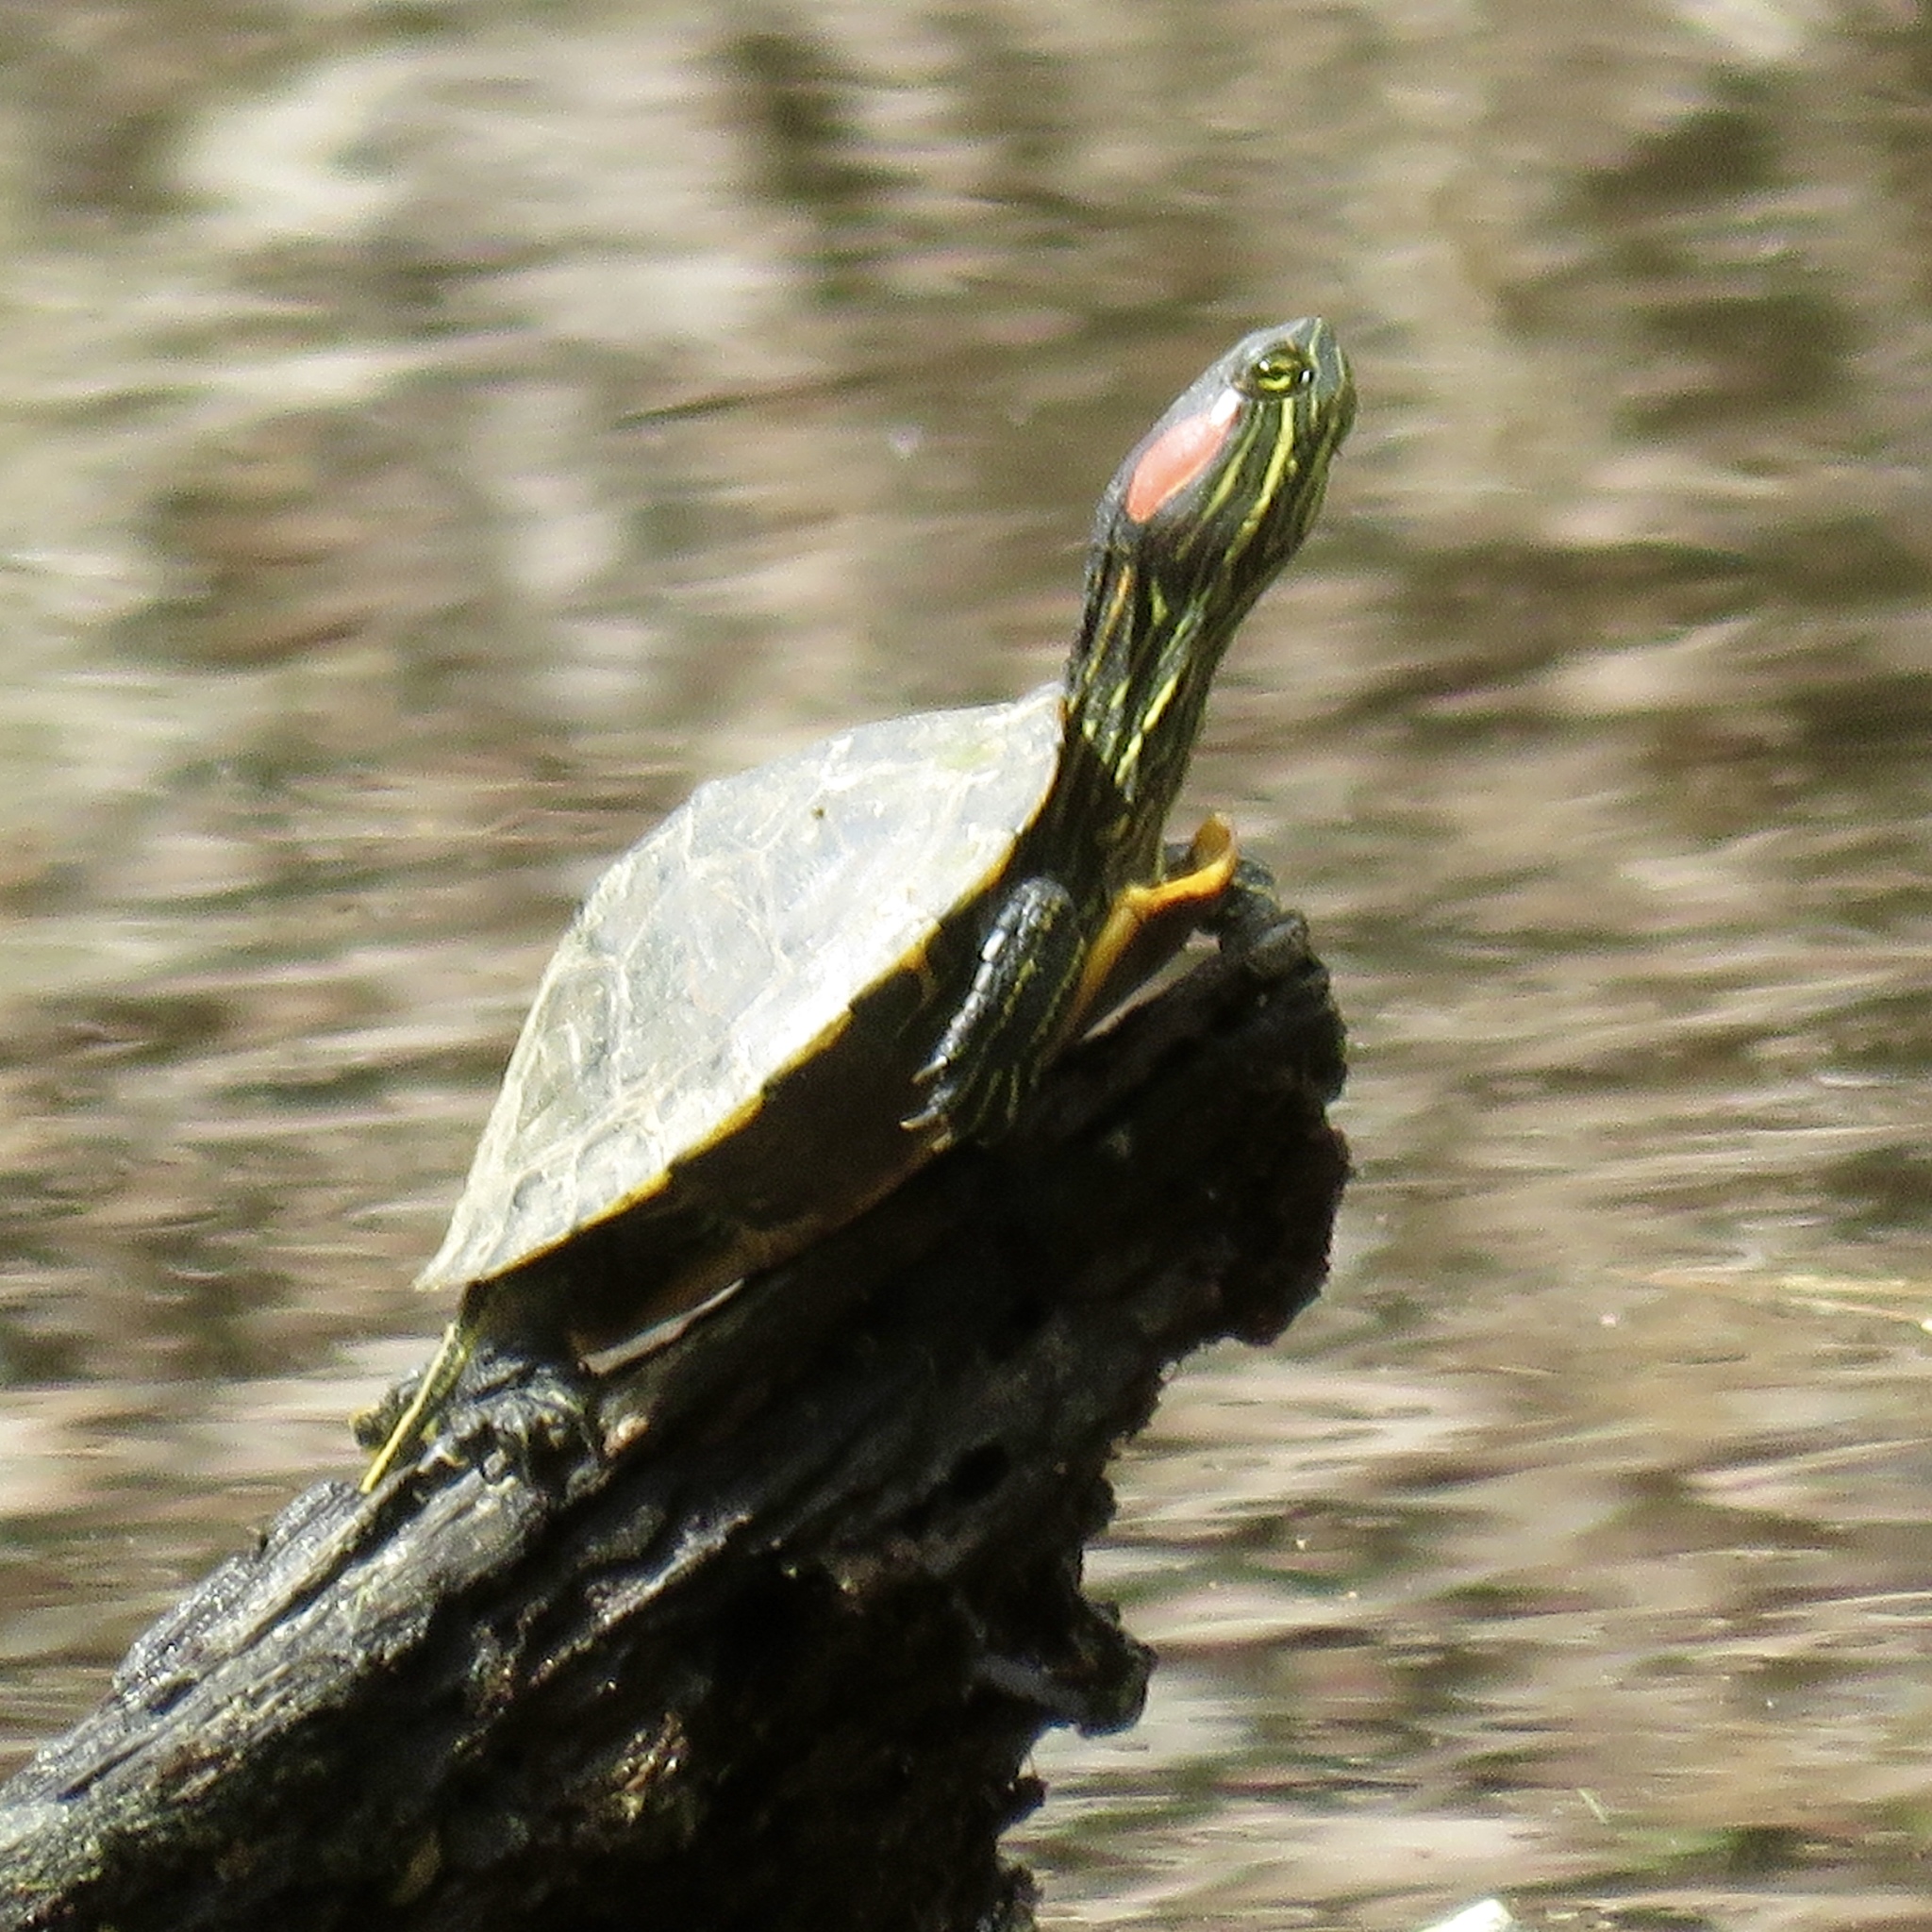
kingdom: Animalia
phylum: Chordata
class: Testudines
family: Emydidae
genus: Trachemys
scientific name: Trachemys scripta
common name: Slider
